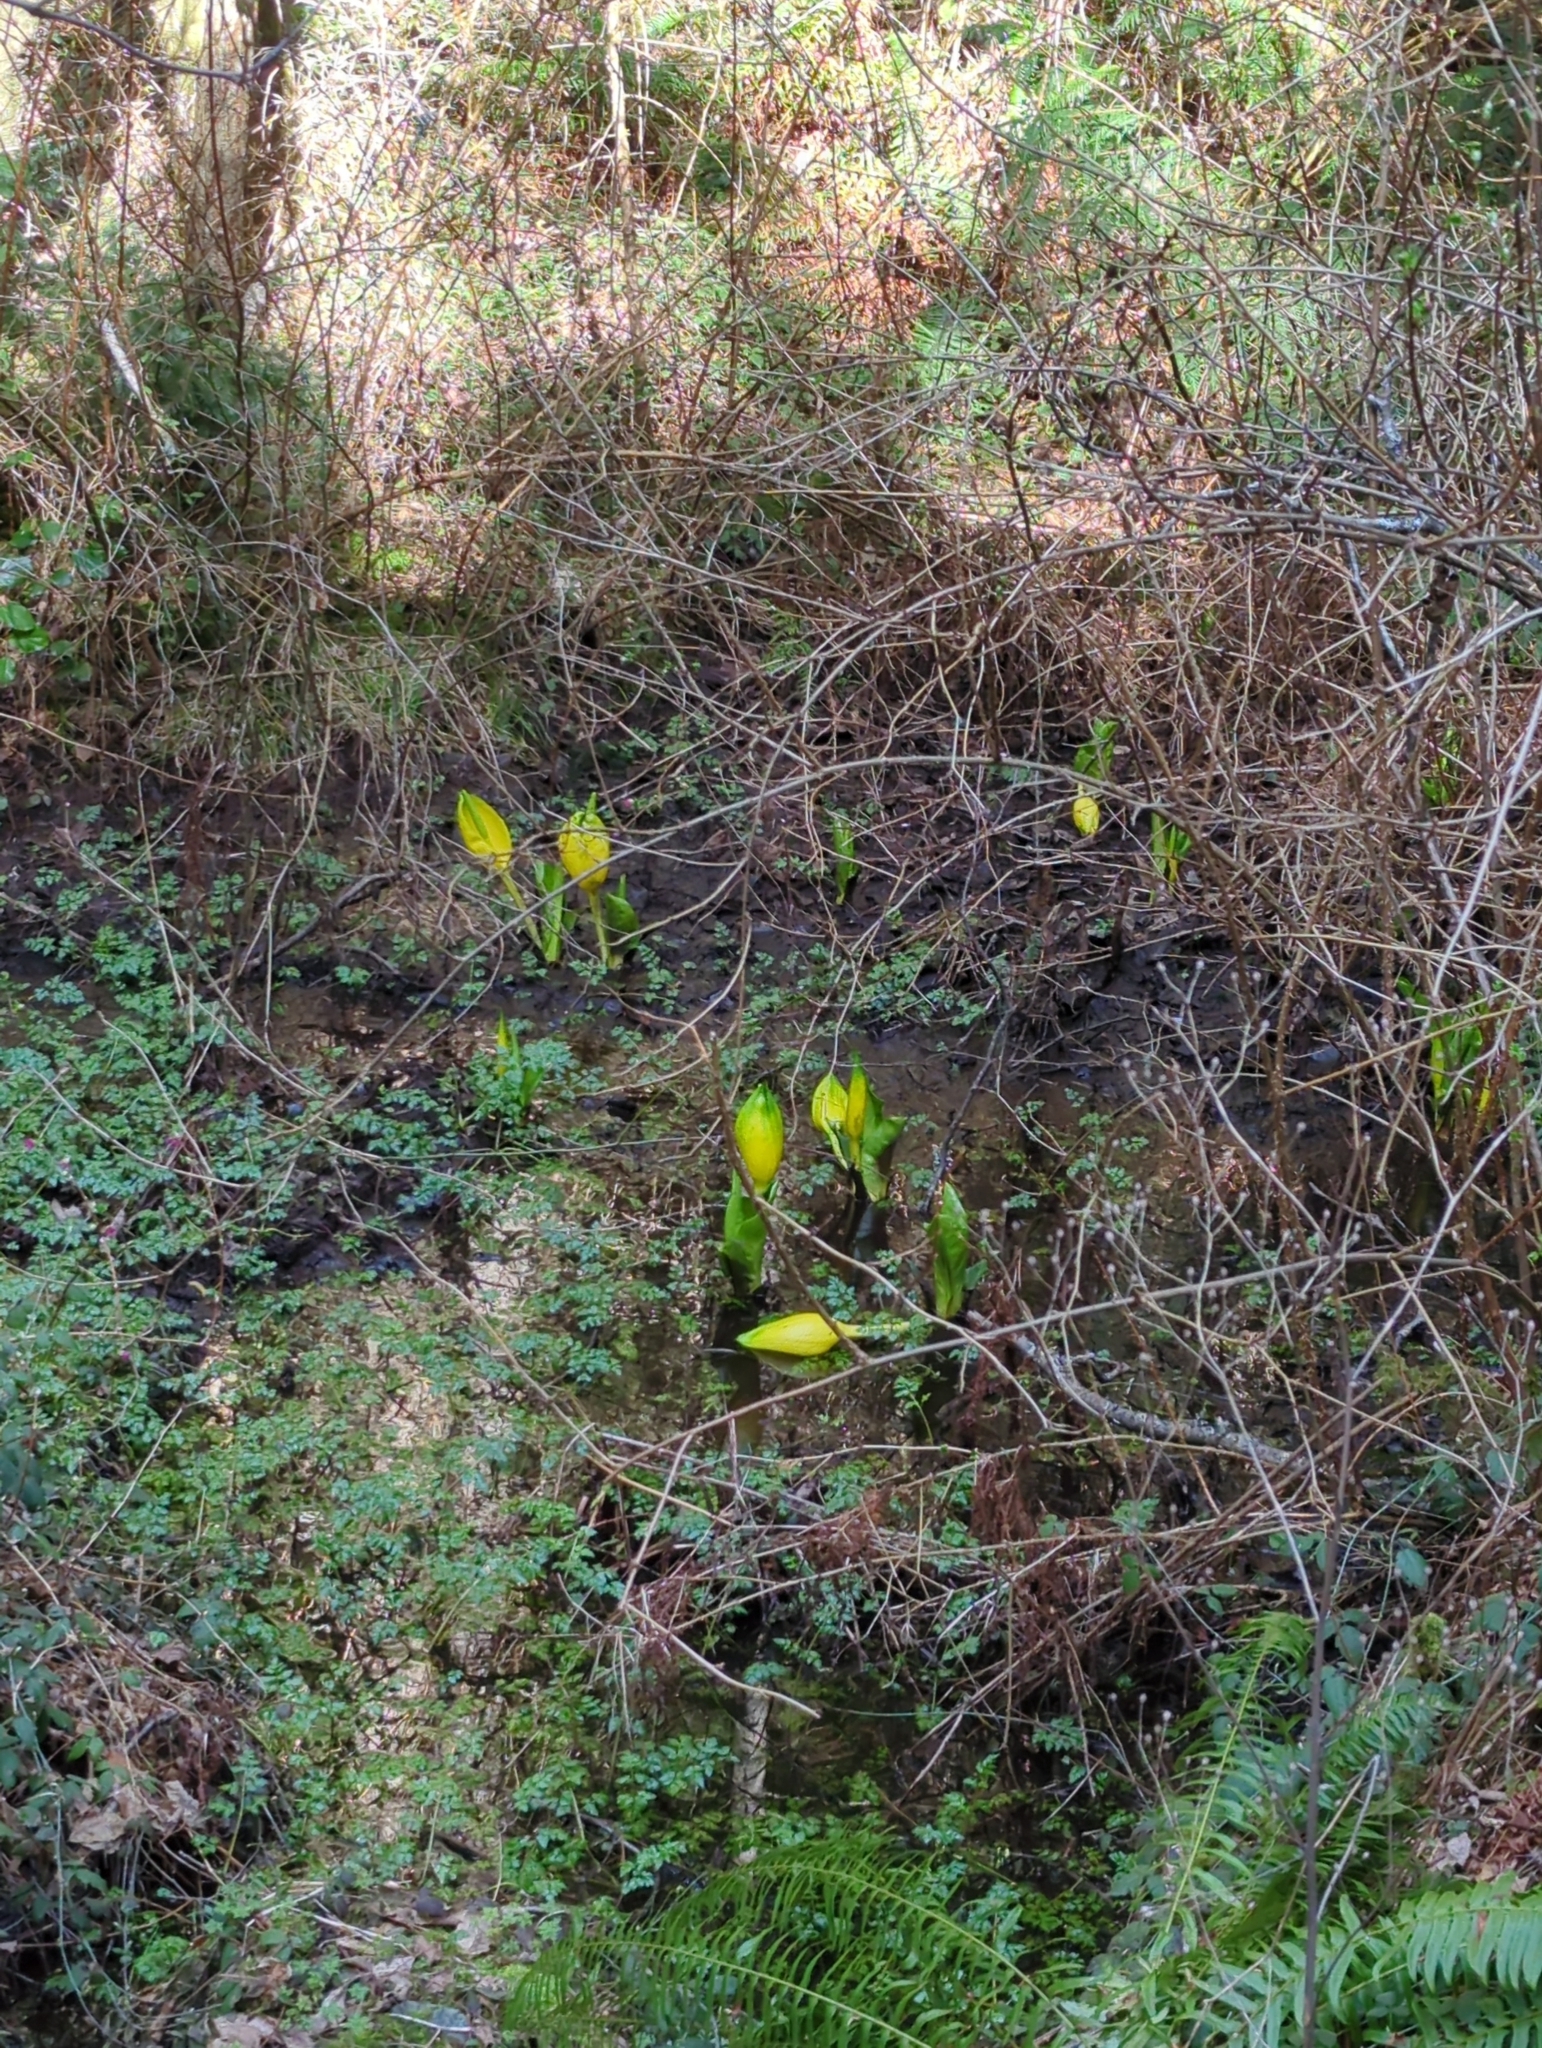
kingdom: Plantae
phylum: Tracheophyta
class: Liliopsida
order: Alismatales
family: Araceae
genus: Lysichiton
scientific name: Lysichiton americanus
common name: American skunk cabbage
